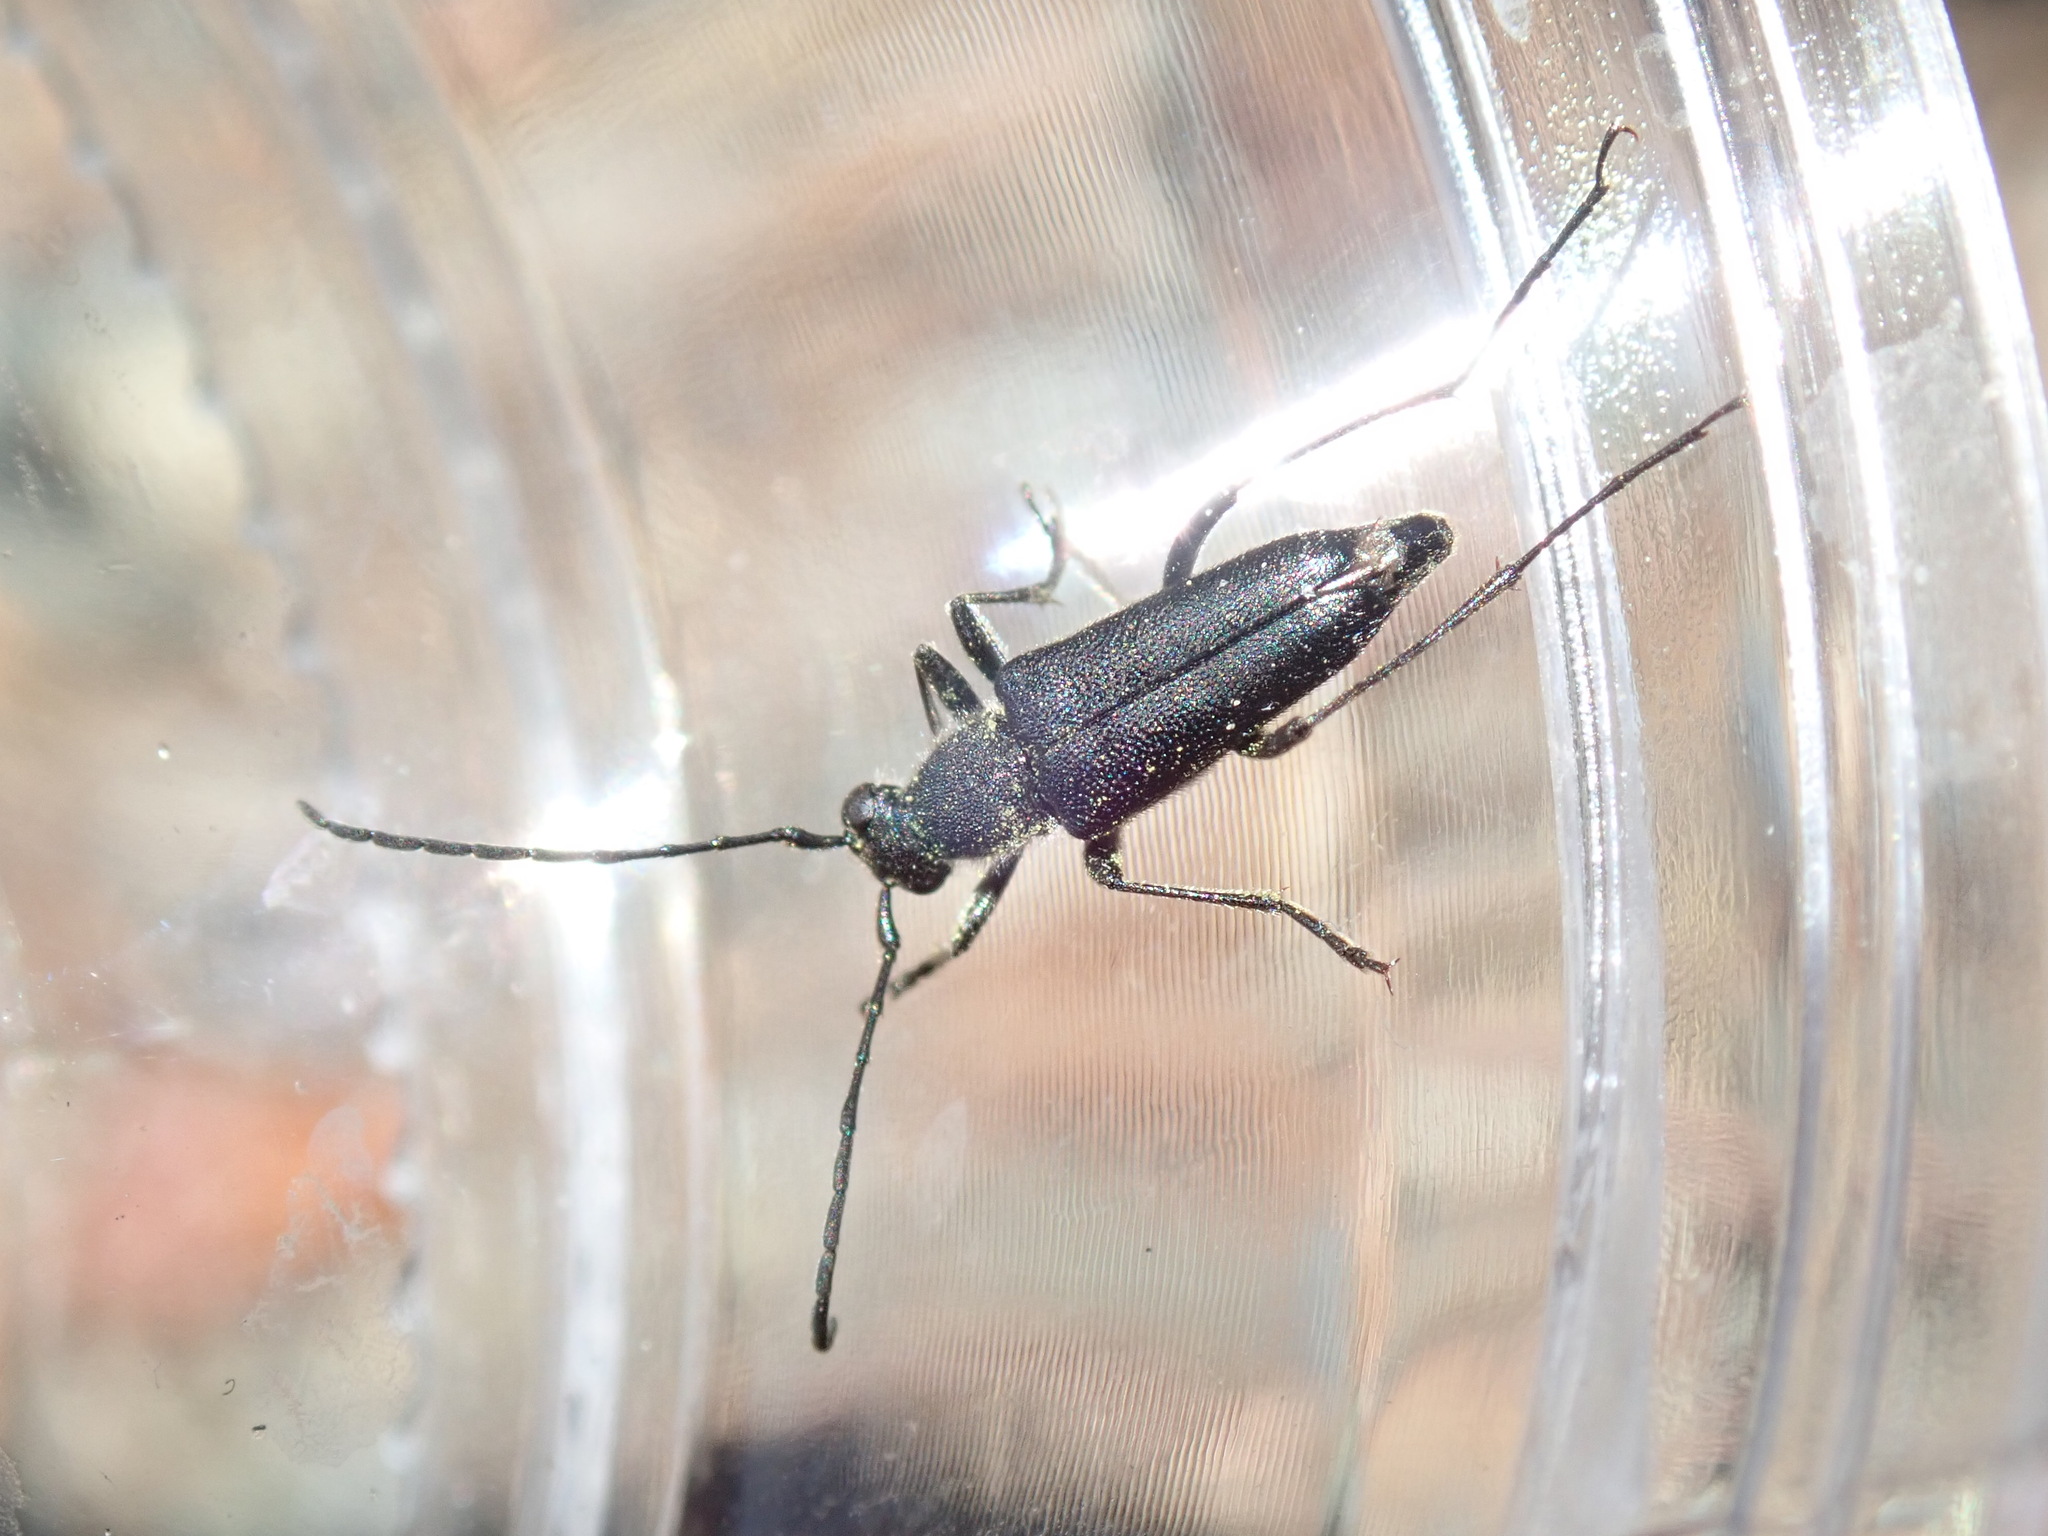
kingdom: Animalia
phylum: Arthropoda
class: Insecta
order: Coleoptera
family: Cerambycidae
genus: Anastrangalia
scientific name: Anastrangalia laetifica
